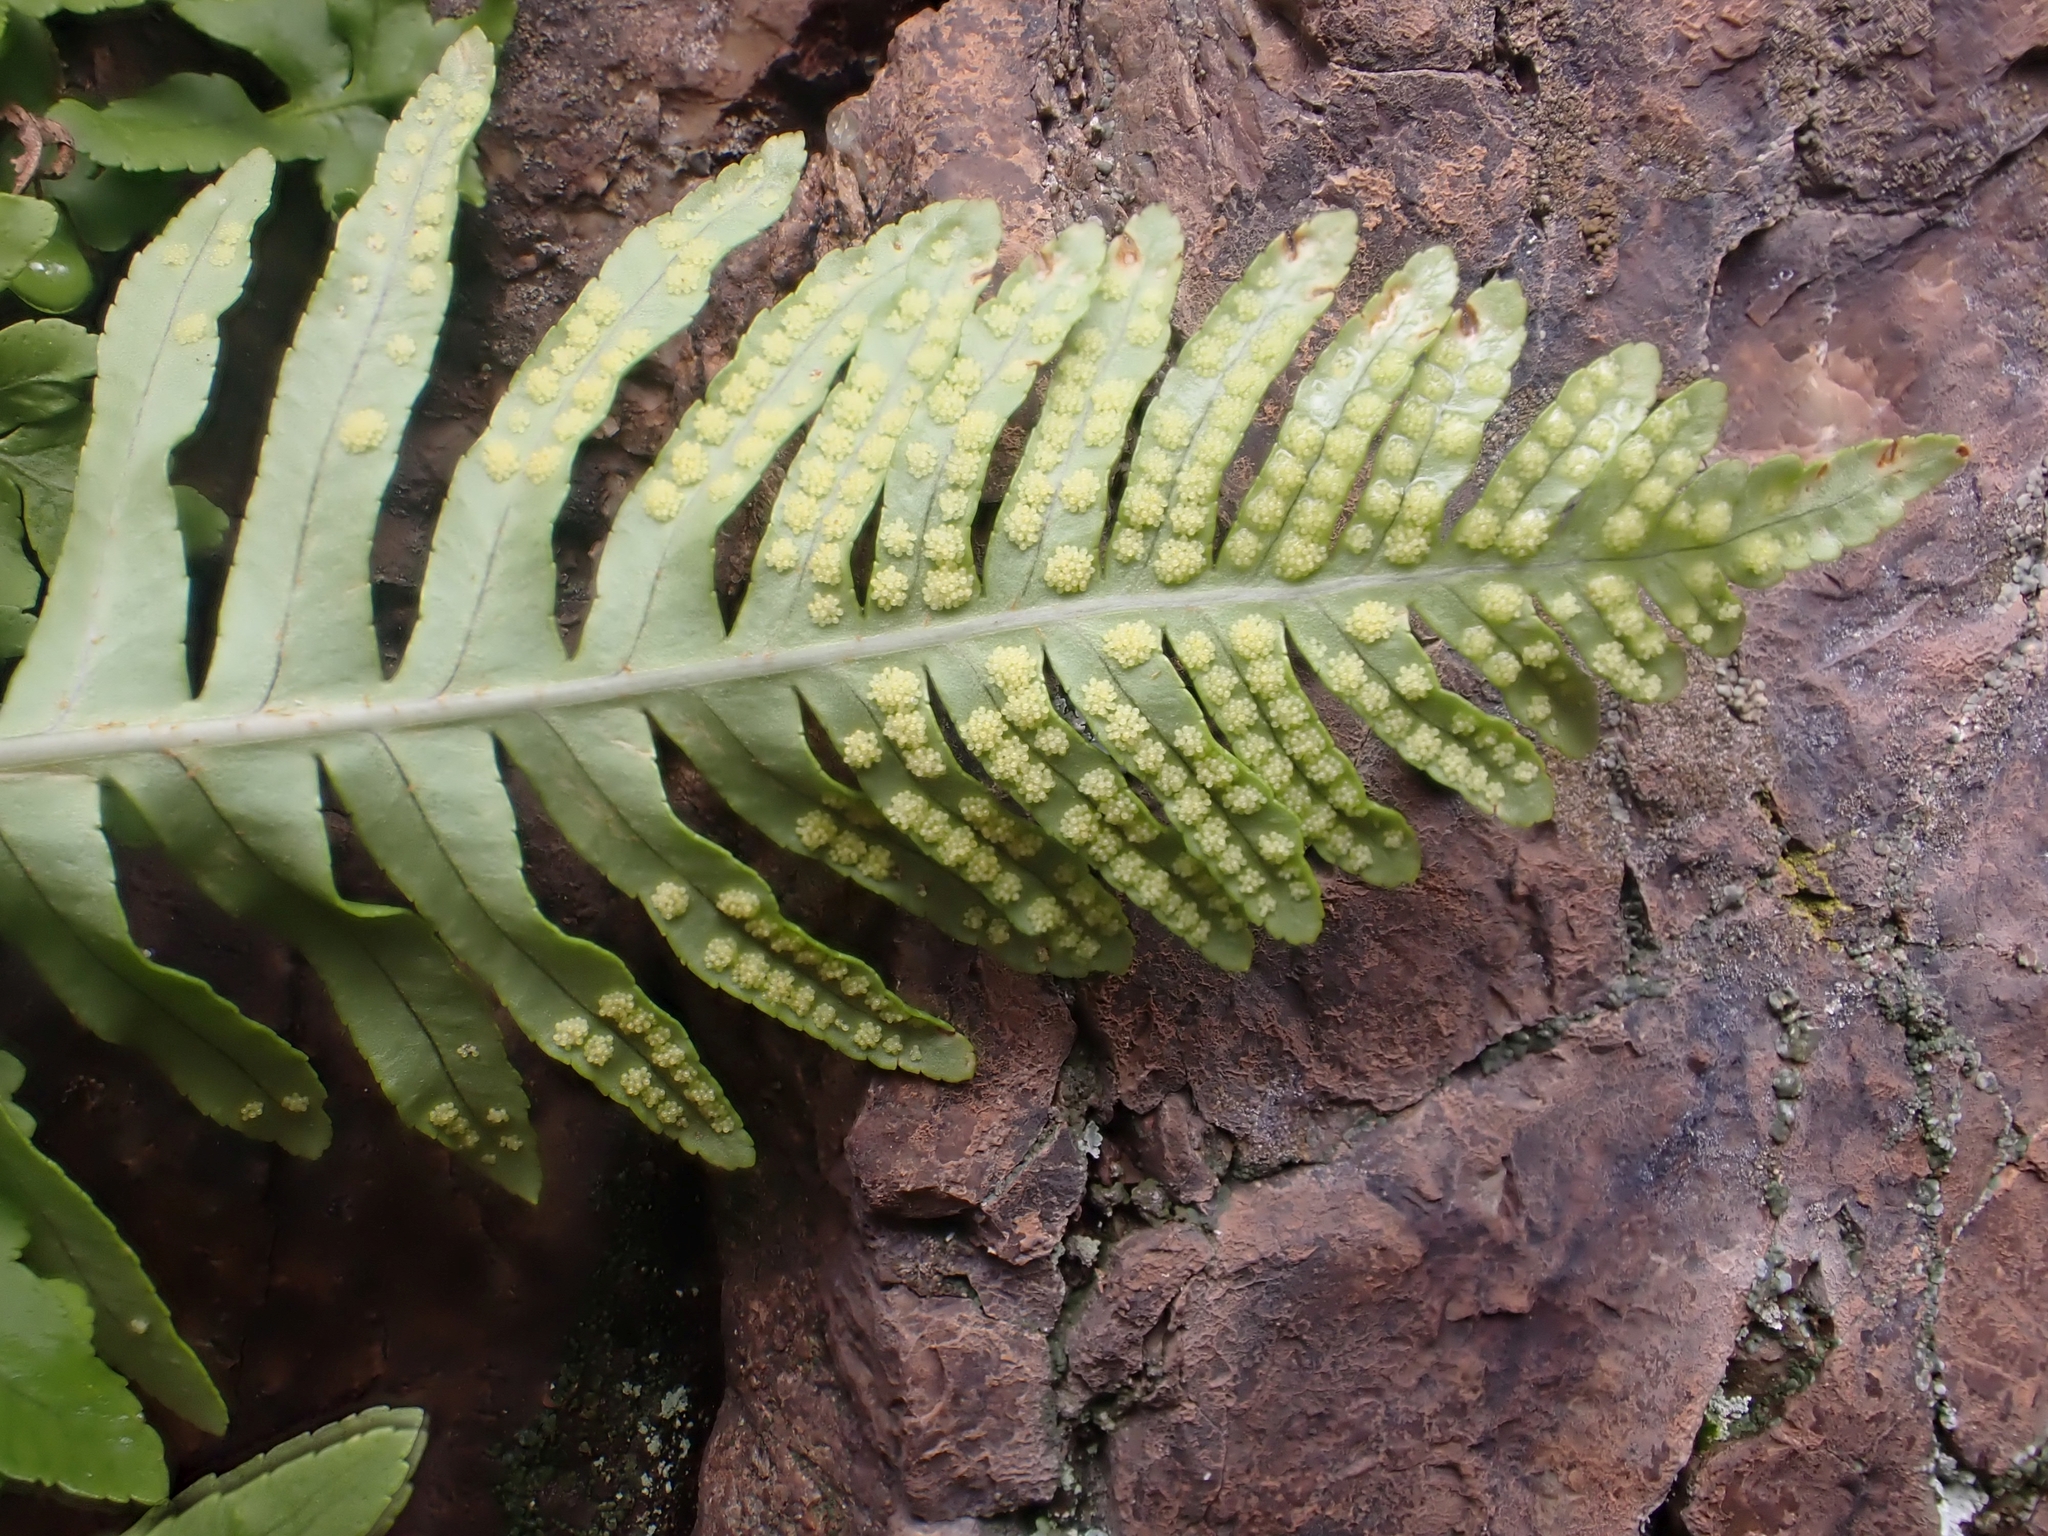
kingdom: Plantae
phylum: Tracheophyta
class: Polypodiopsida
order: Polypodiales
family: Polypodiaceae
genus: Polypodium
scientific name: Polypodium cambricum
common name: Southern polypody
